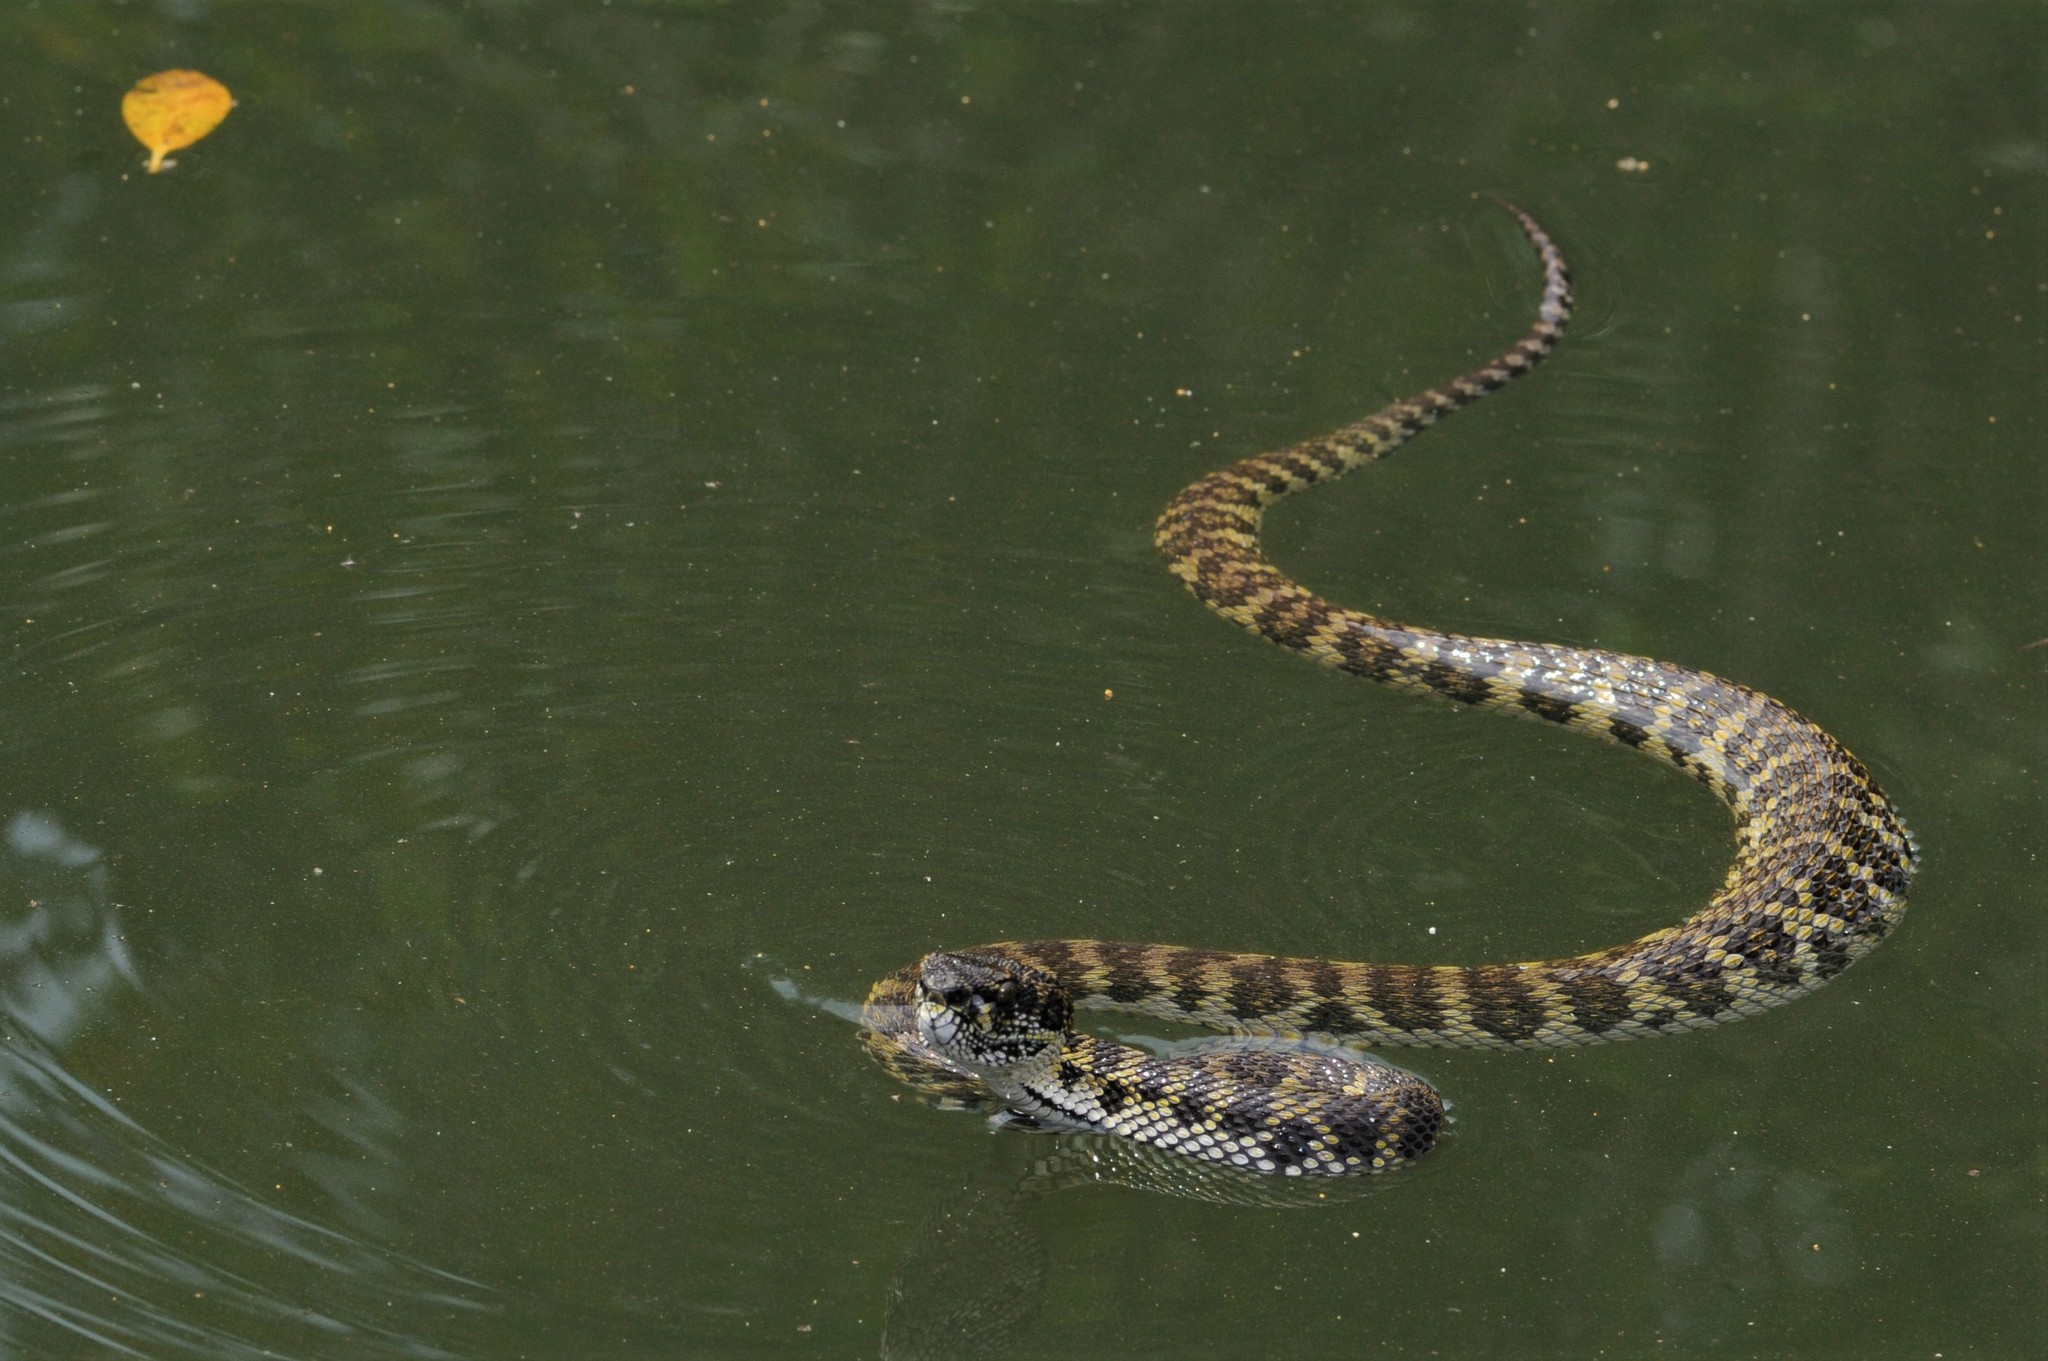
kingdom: Animalia
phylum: Chordata
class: Squamata
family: Viperidae
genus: Trimeresurus
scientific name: Trimeresurus purpureomaculatus
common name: Shore pit viper
